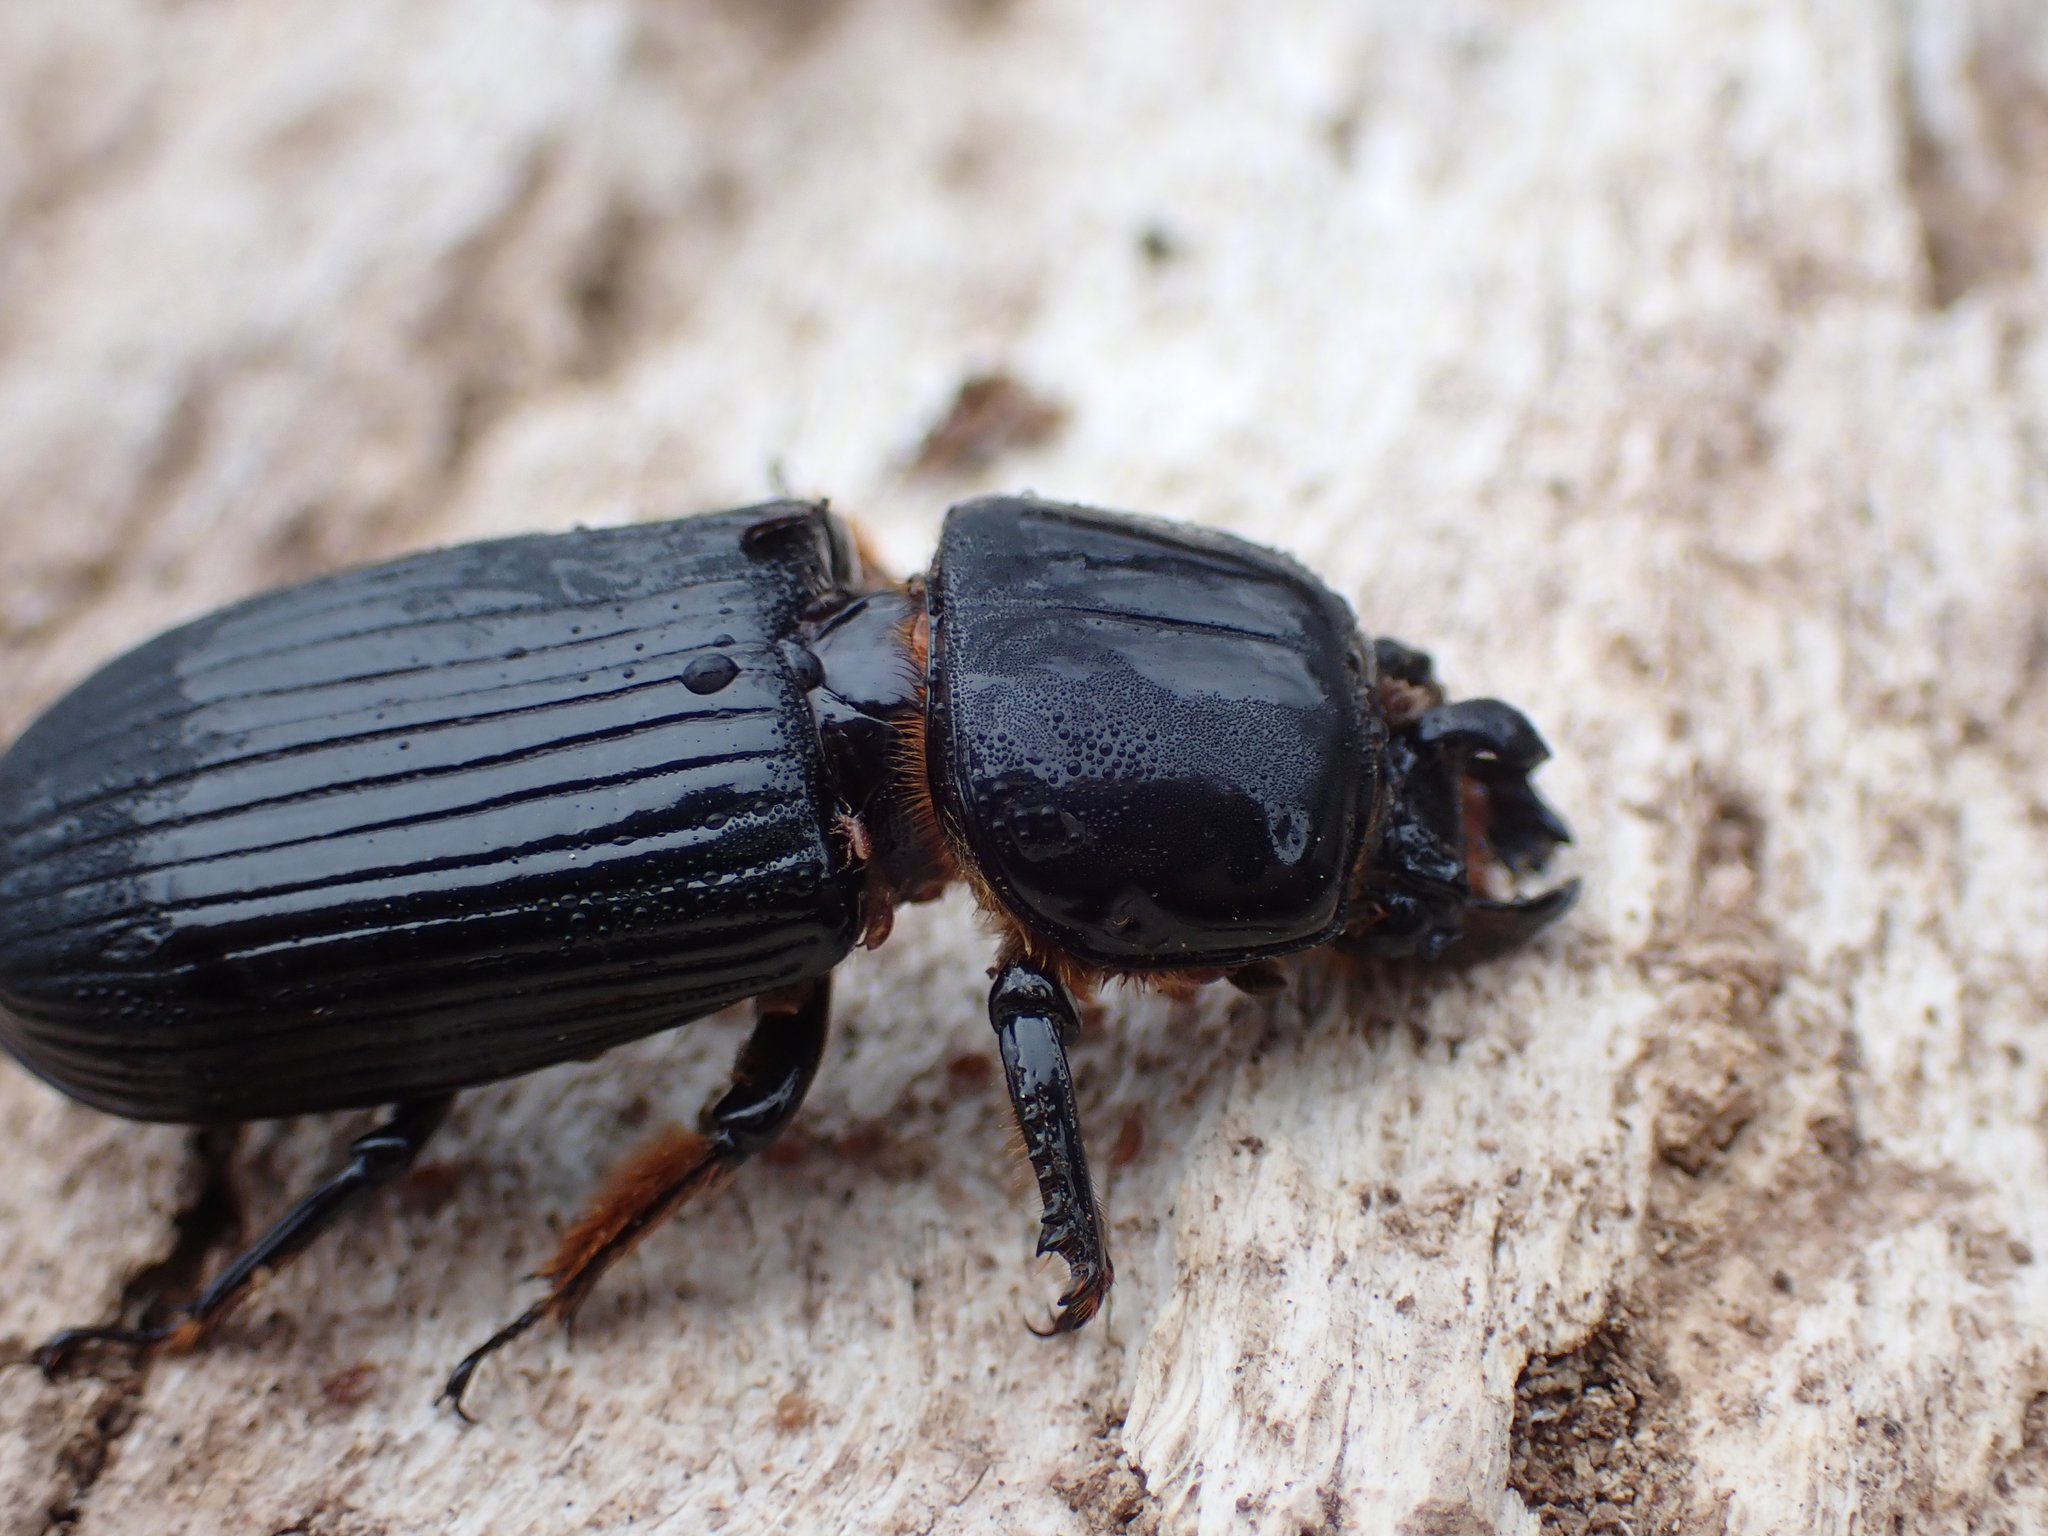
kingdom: Animalia
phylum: Arthropoda
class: Insecta
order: Coleoptera
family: Passalidae
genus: Odontotaenius
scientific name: Odontotaenius disjunctus
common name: Patent leather beetle
